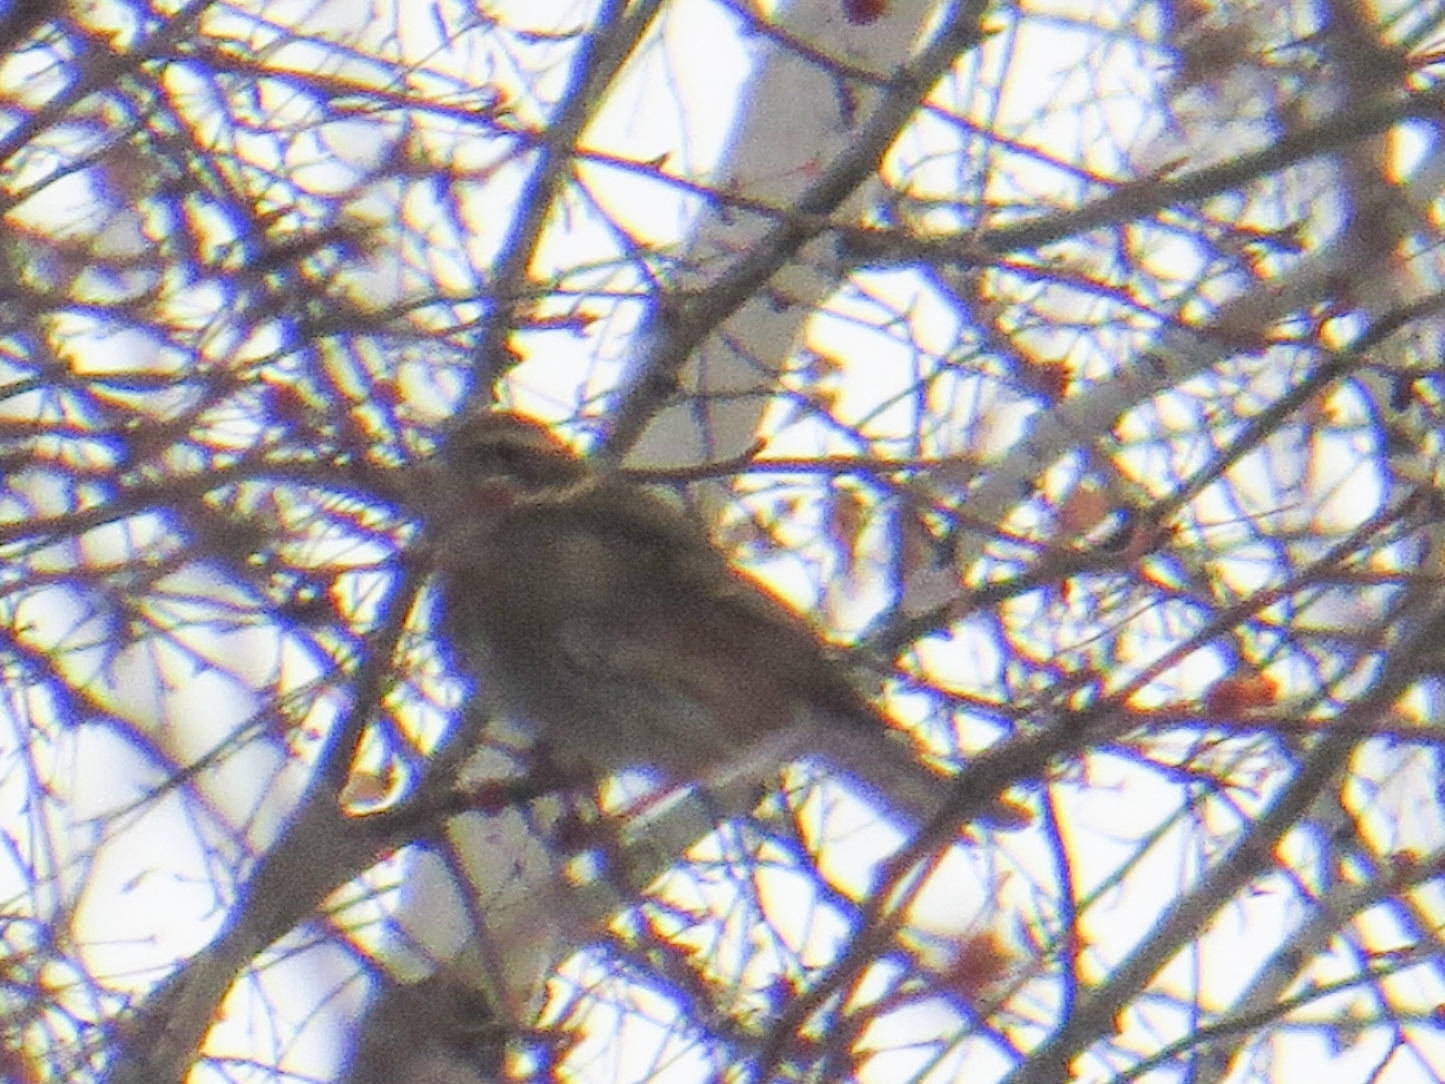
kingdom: Animalia
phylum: Chordata
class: Aves
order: Passeriformes
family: Turdidae
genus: Turdus
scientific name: Turdus iliacus
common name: Redwing
